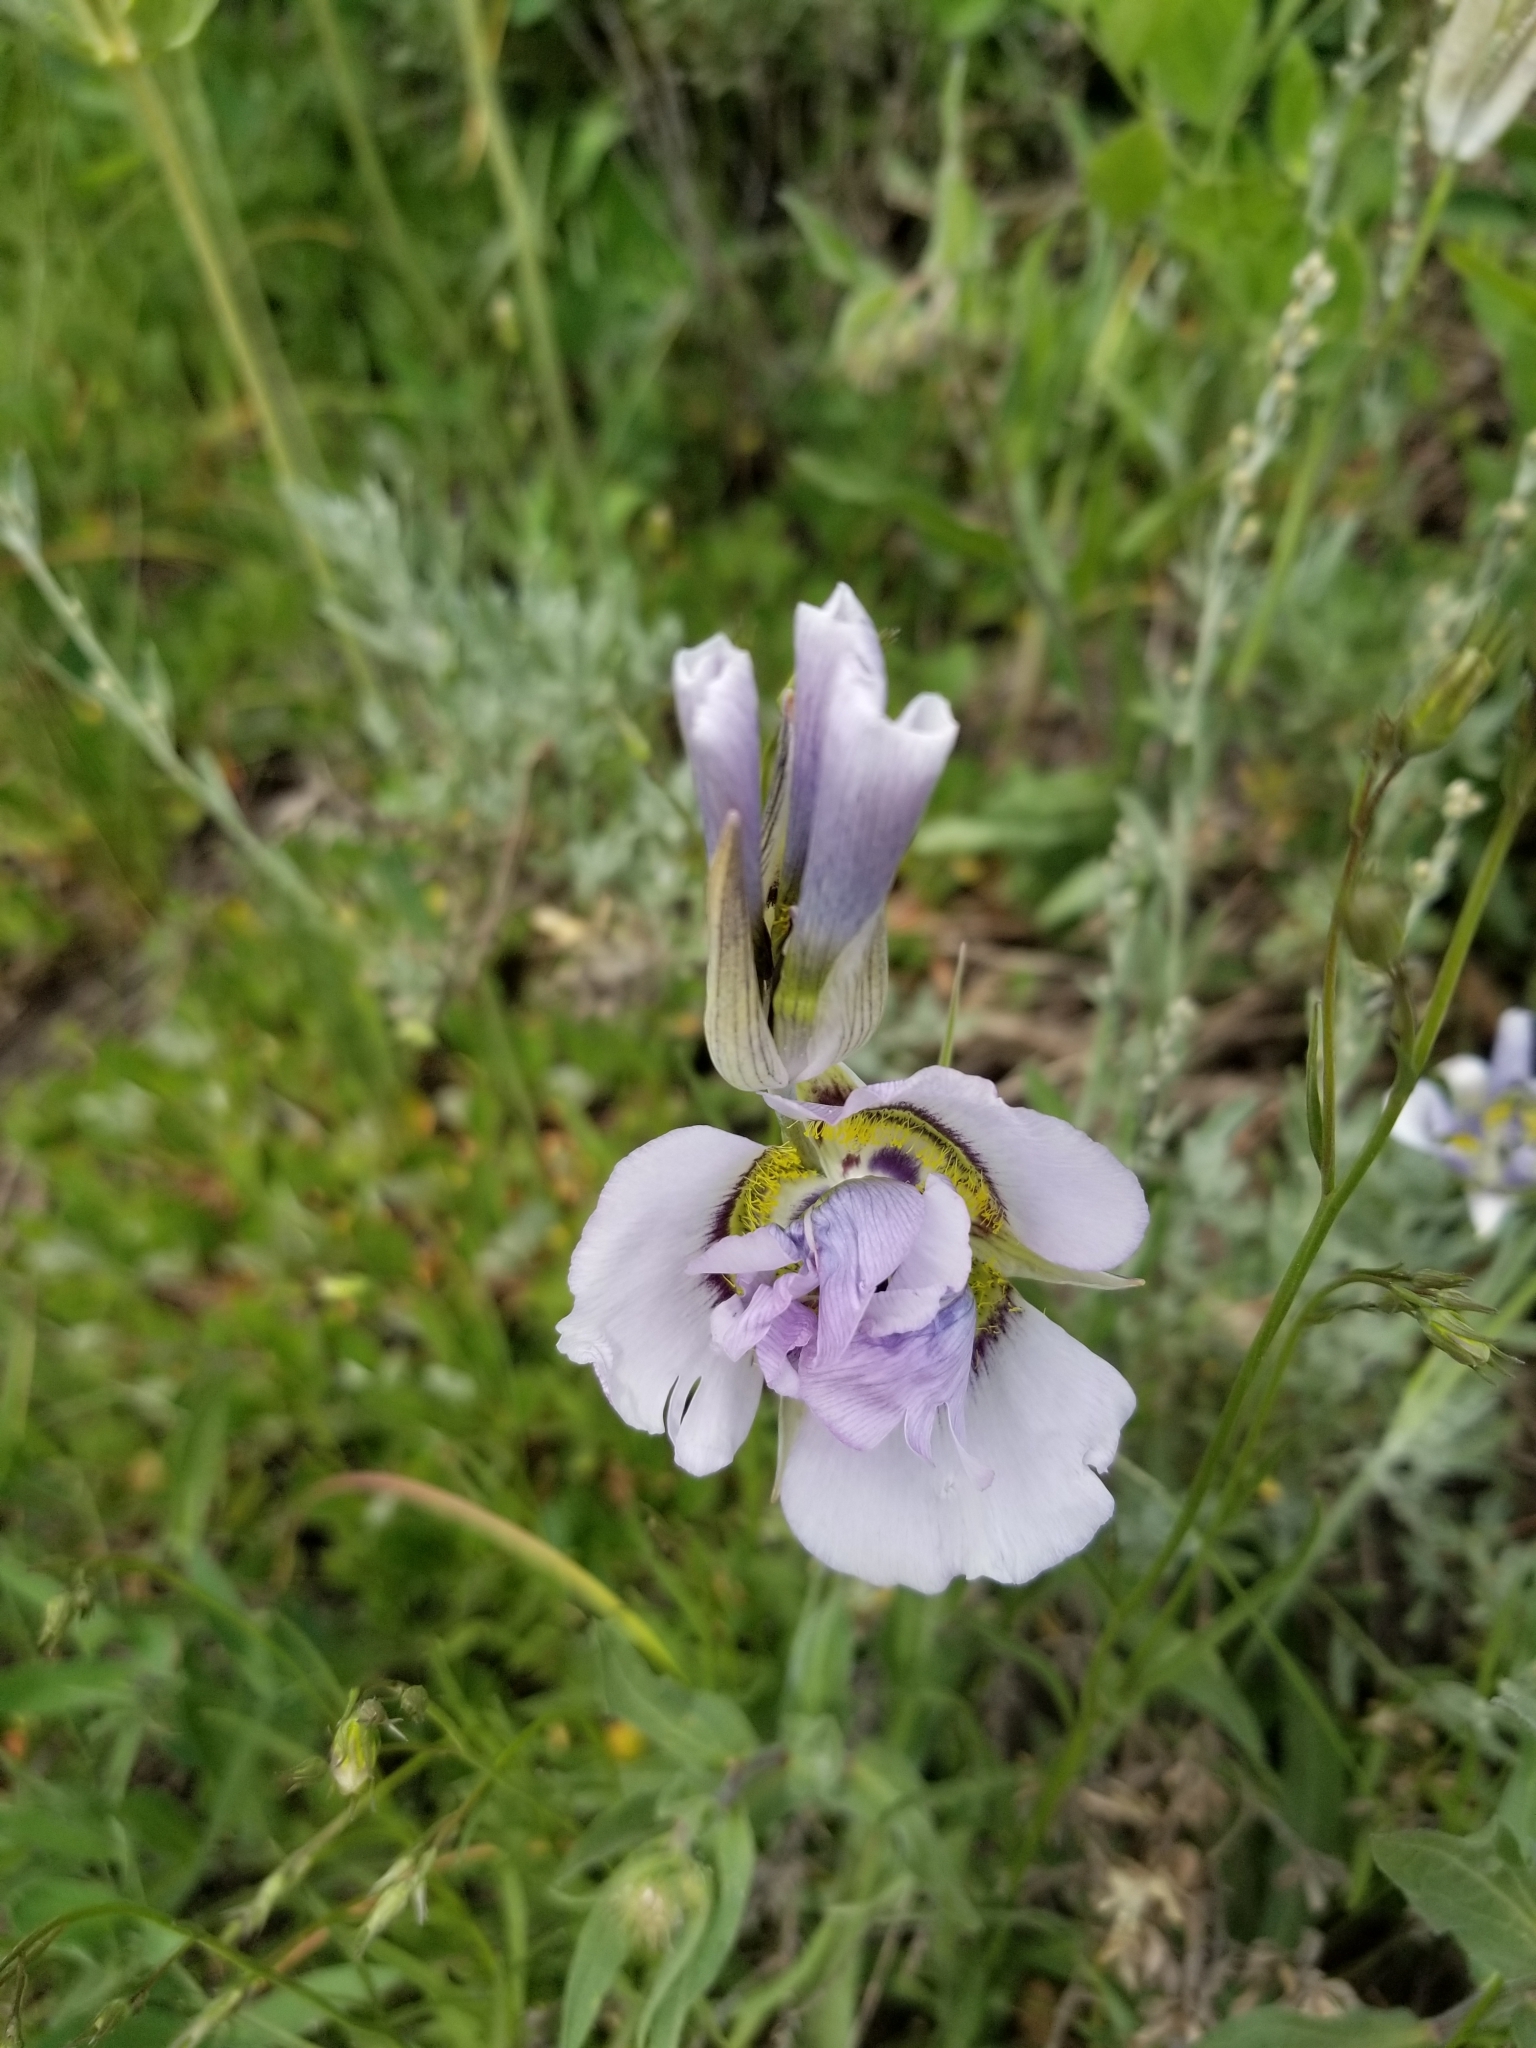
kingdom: Plantae
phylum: Tracheophyta
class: Liliopsida
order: Liliales
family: Liliaceae
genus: Calochortus
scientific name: Calochortus gunnisonii
